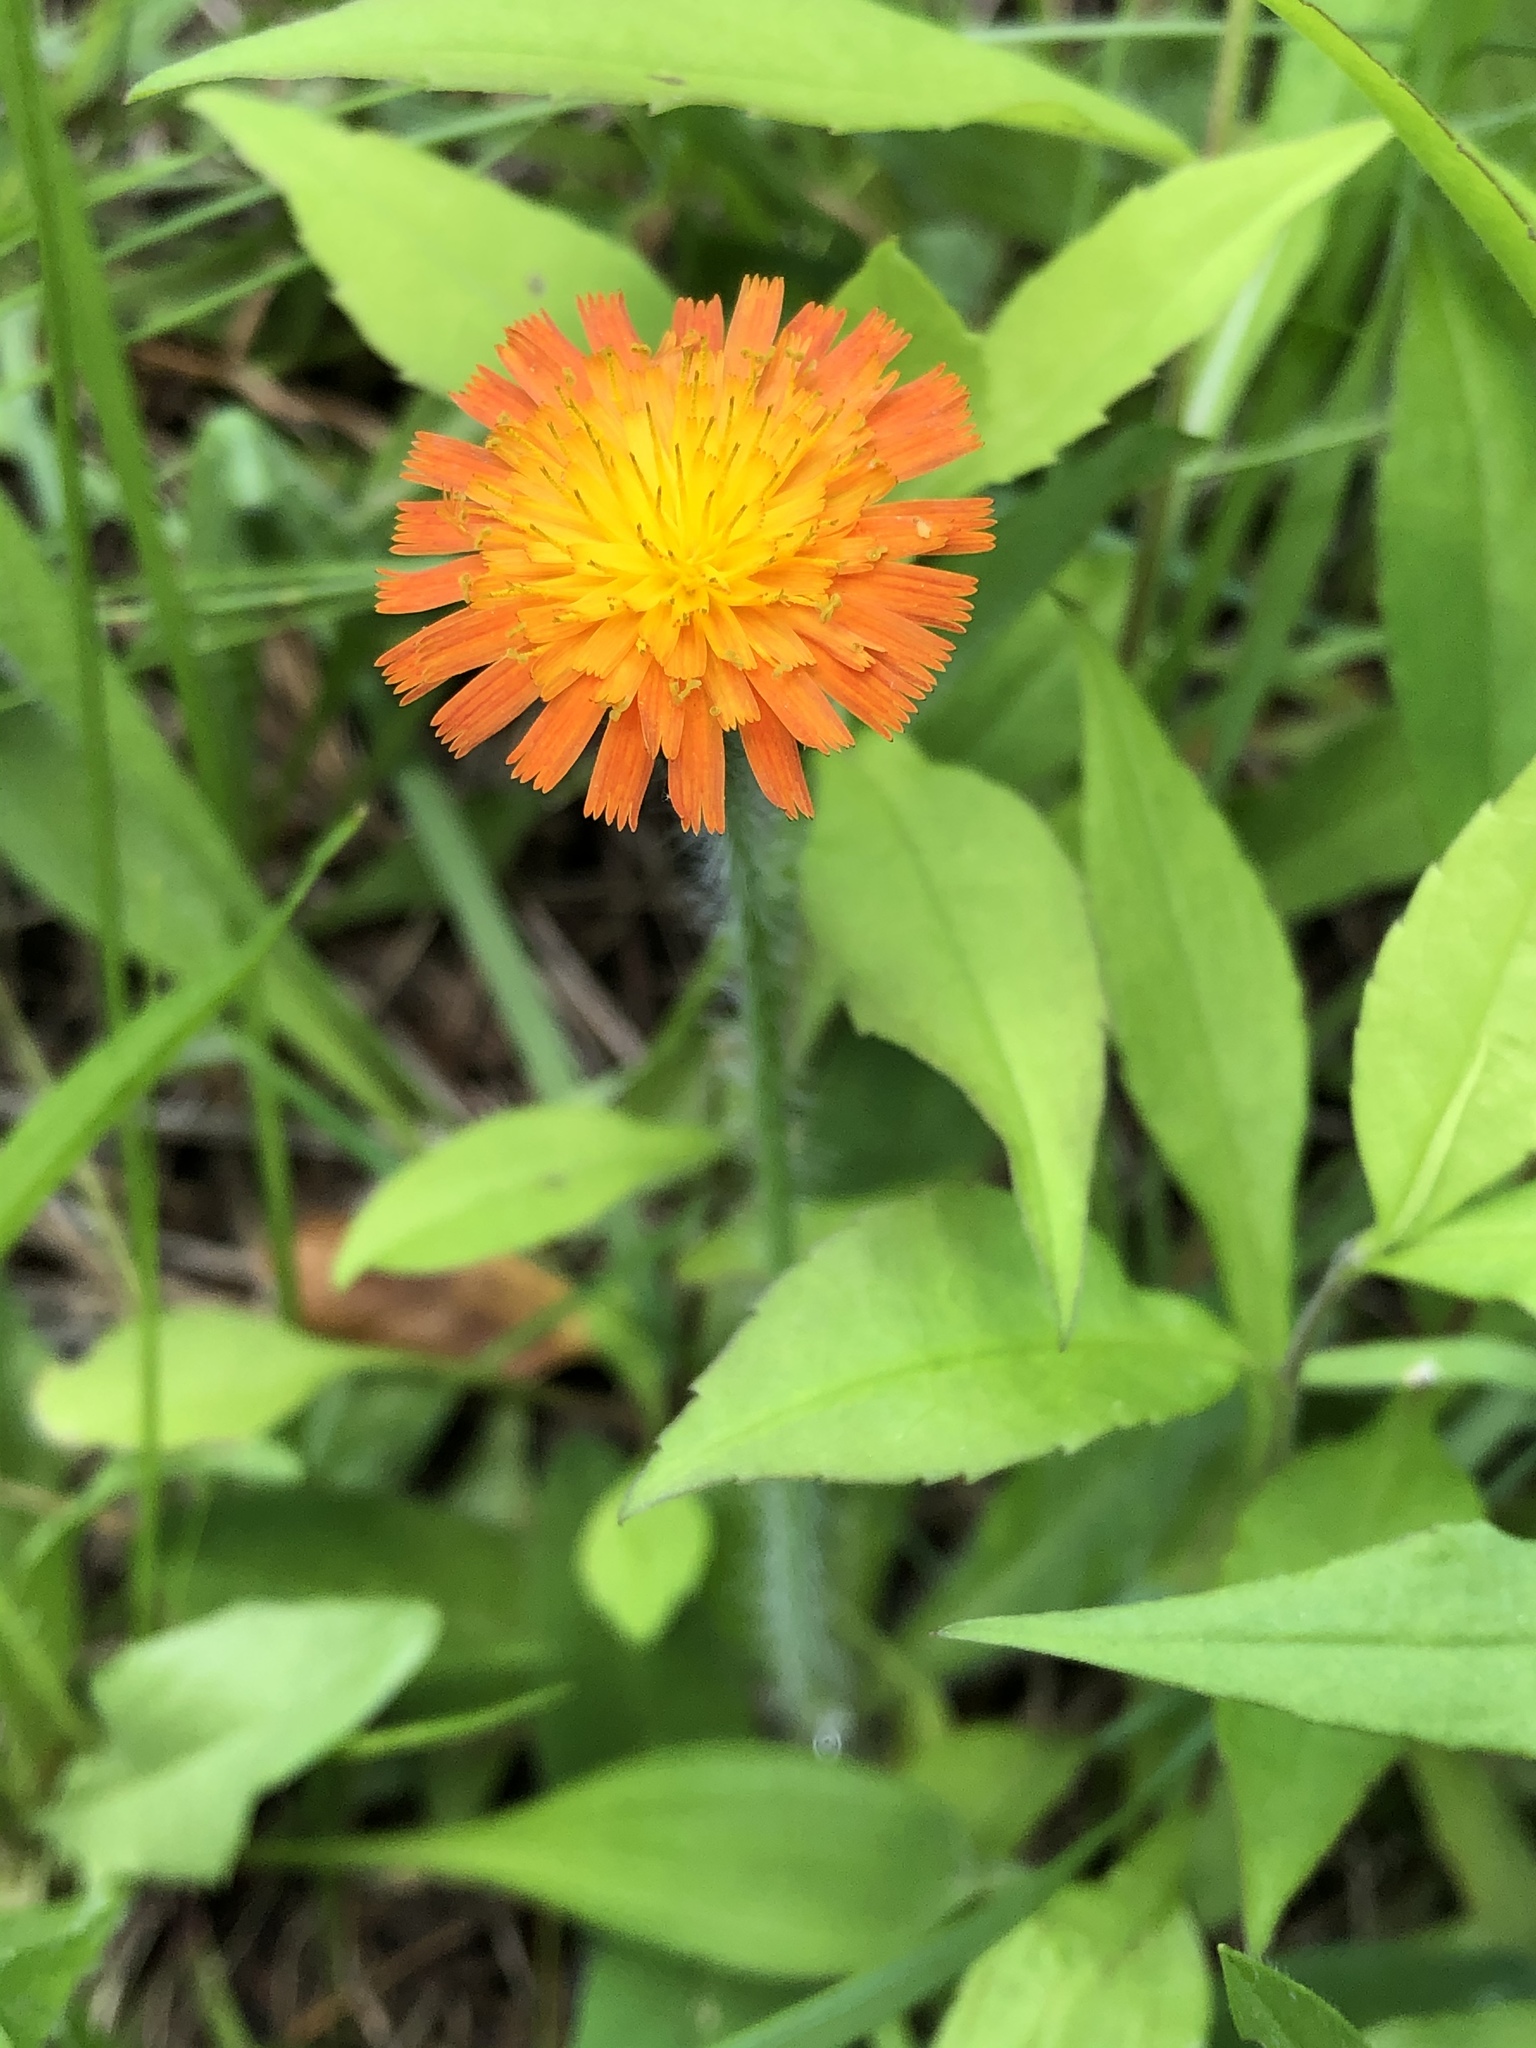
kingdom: Plantae
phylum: Tracheophyta
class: Magnoliopsida
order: Asterales
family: Asteraceae
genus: Pilosella
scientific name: Pilosella aurantiaca
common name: Fox-and-cubs
